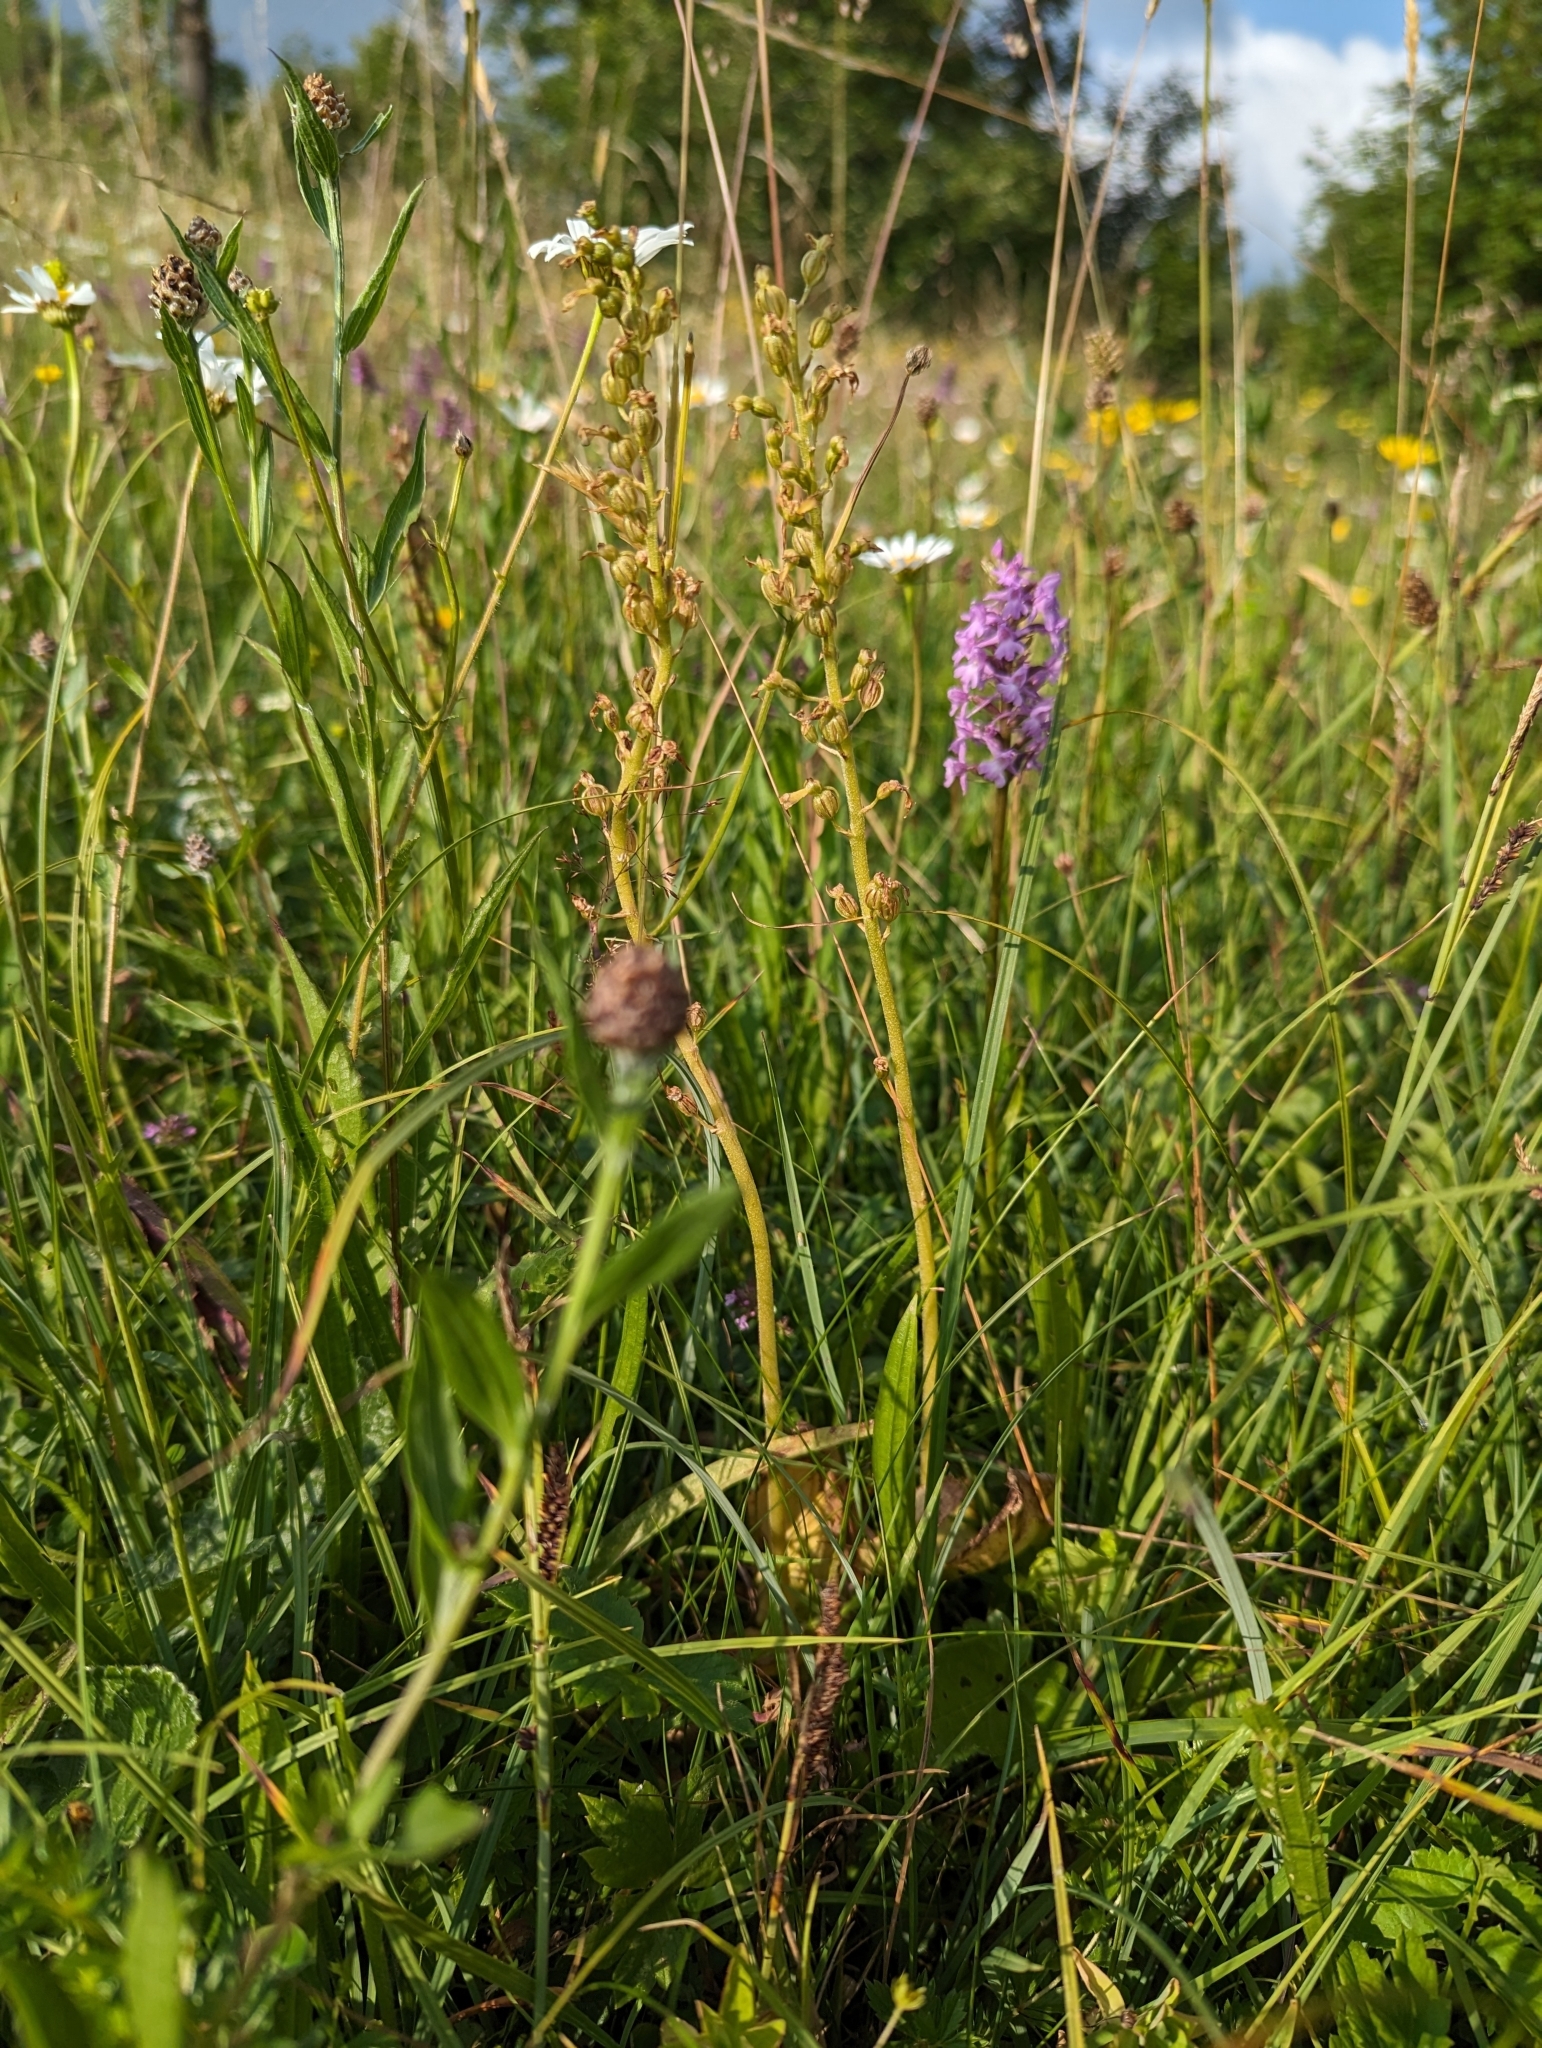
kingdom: Plantae
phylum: Tracheophyta
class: Liliopsida
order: Asparagales
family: Orchidaceae
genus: Neottia
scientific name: Neottia ovata
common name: Common twayblade
